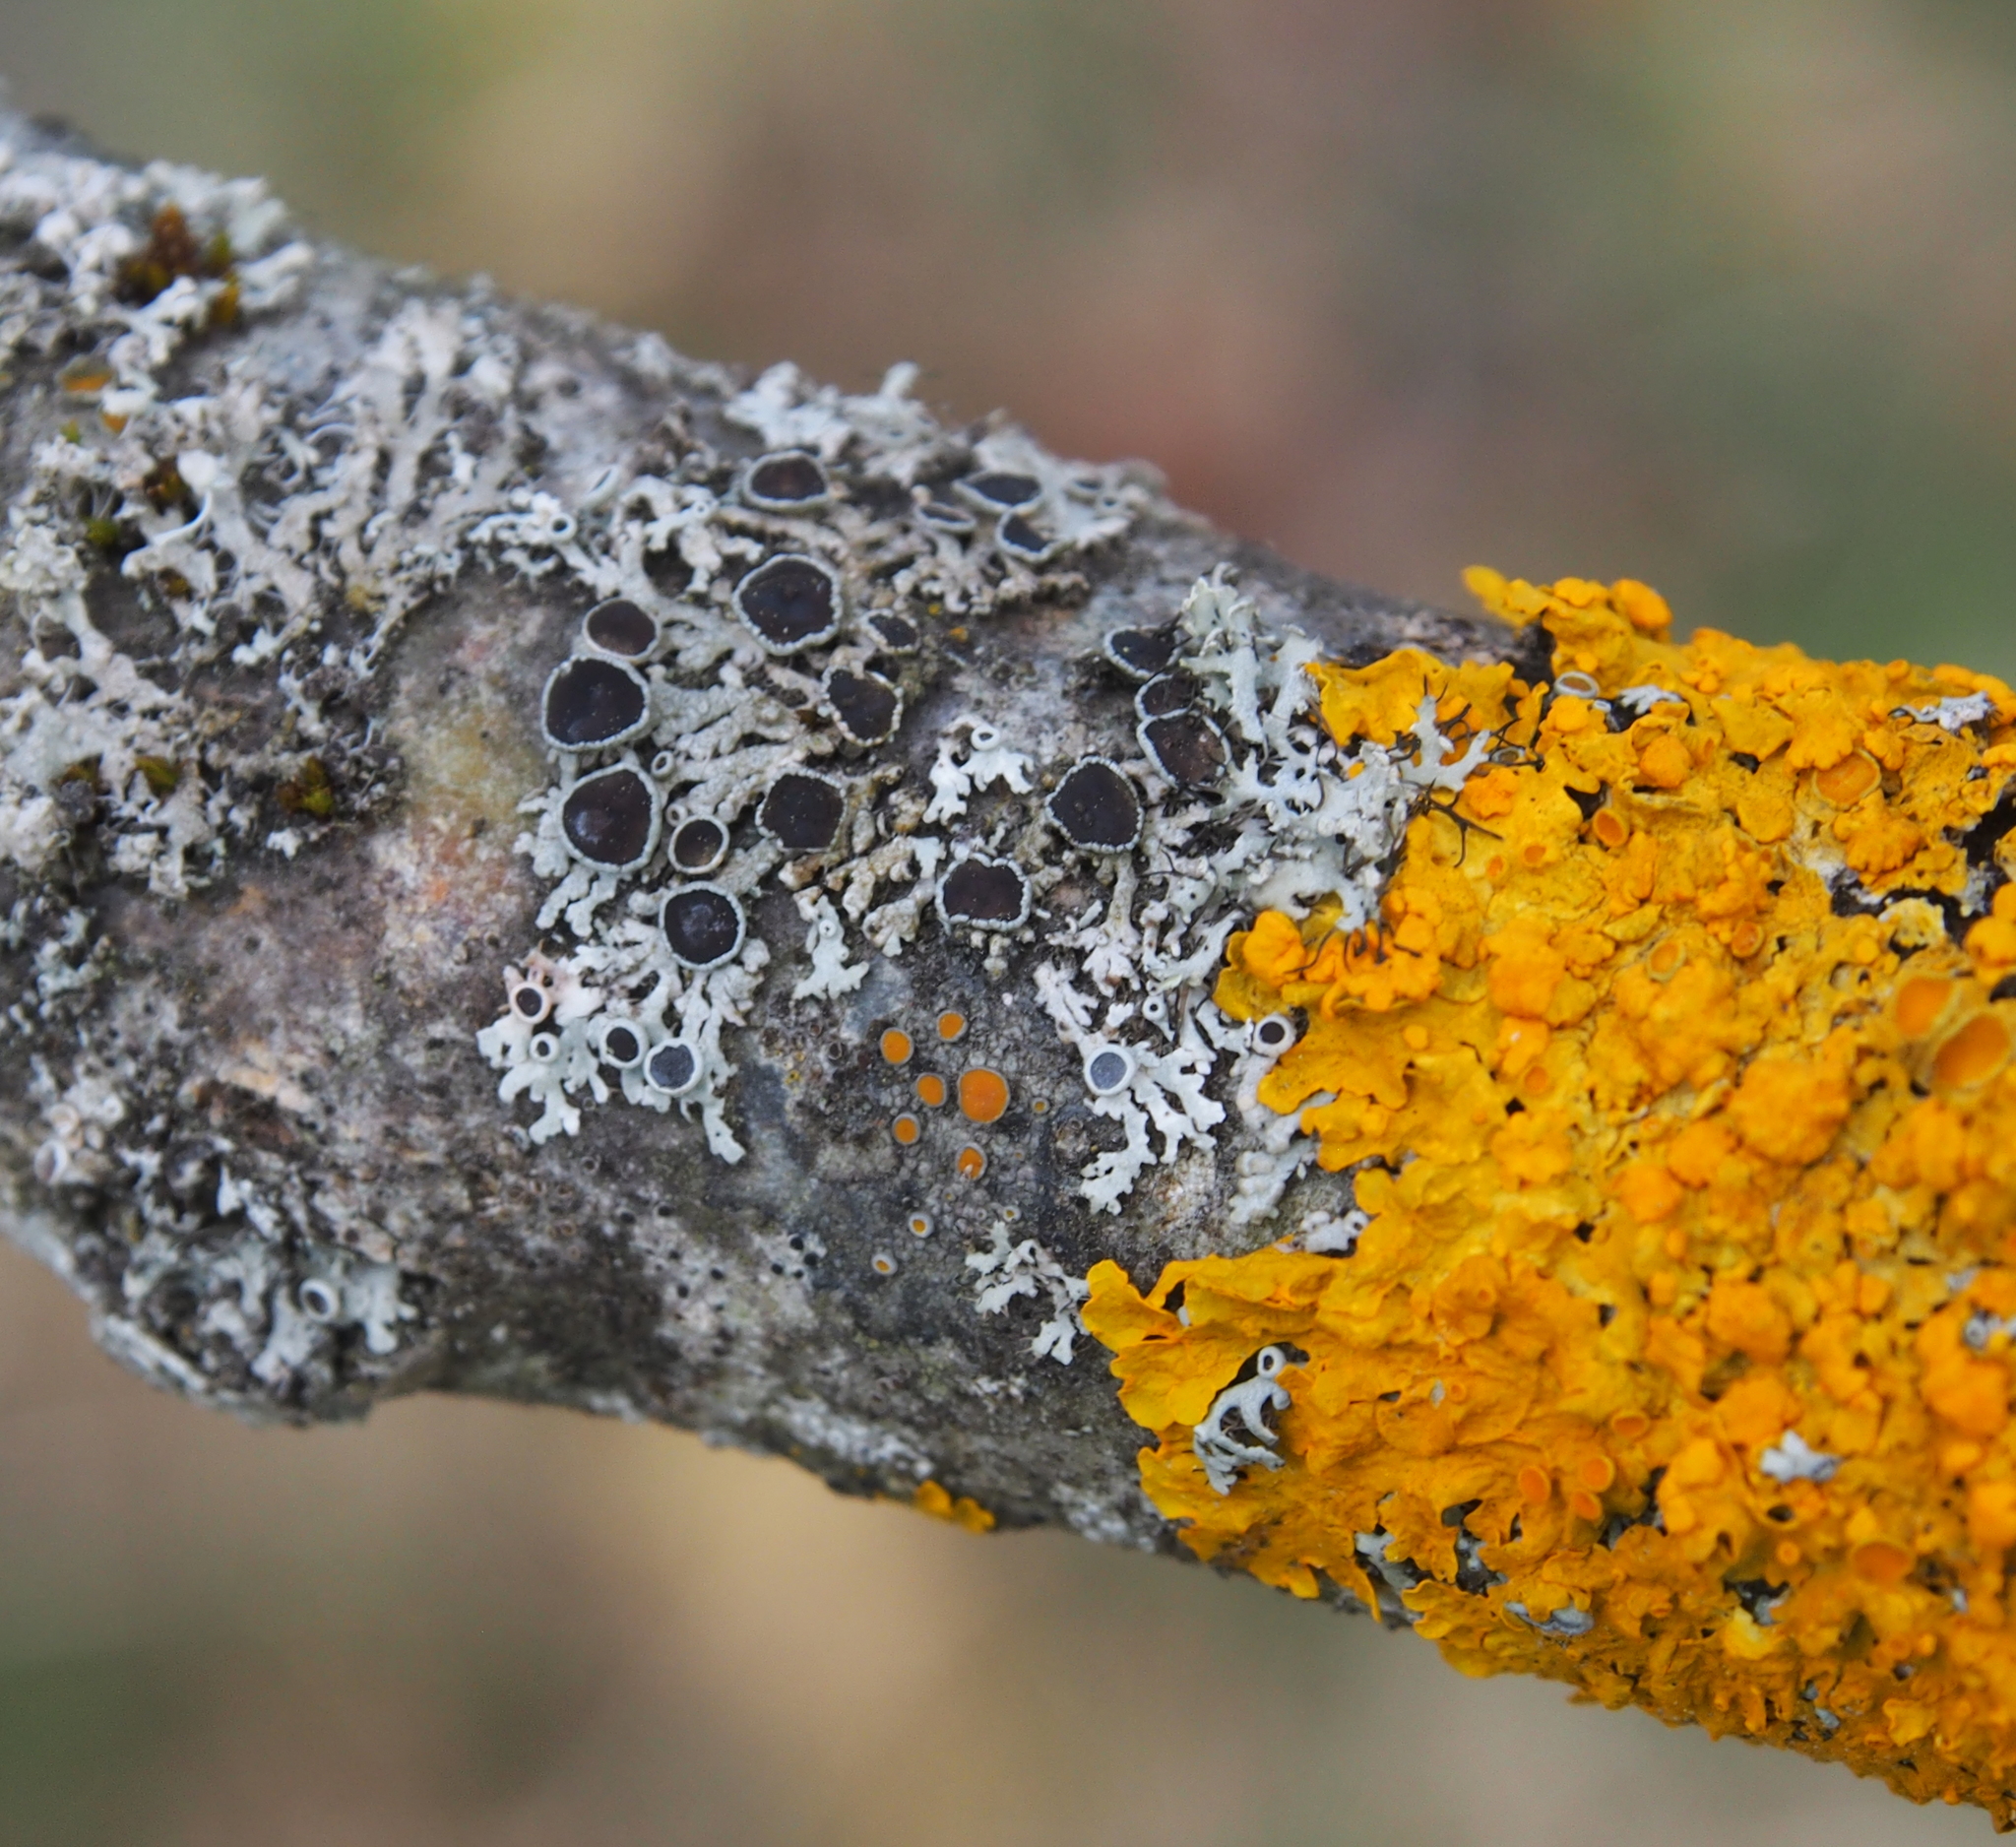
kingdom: Fungi
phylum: Ascomycota
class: Lecanoromycetes
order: Caliciales
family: Physciaceae
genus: Physcia
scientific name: Physcia stellaris
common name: Star rosette lichen
